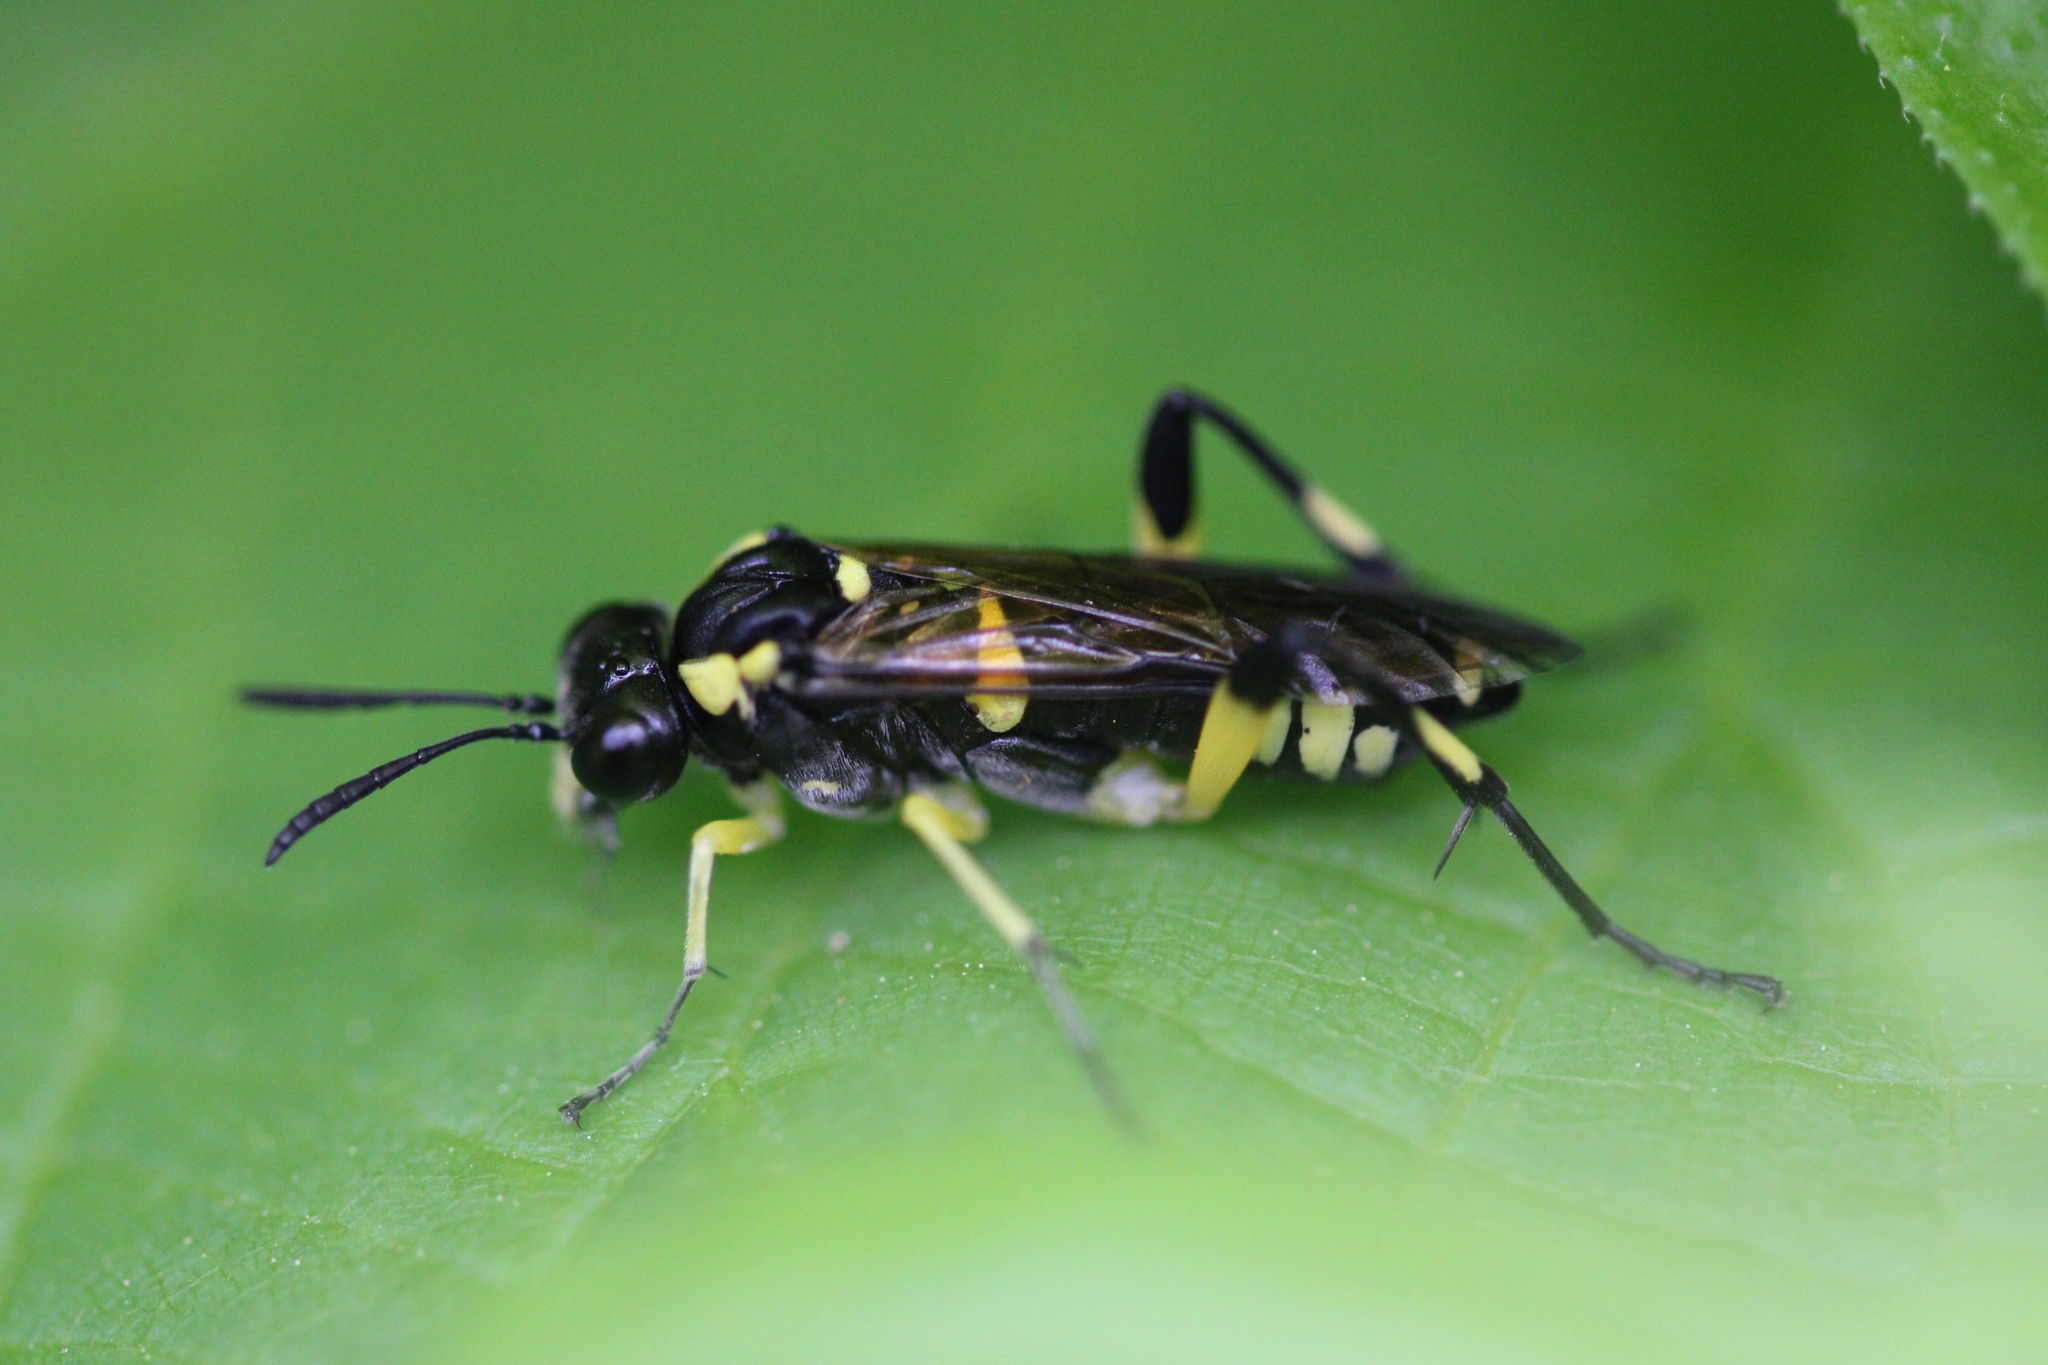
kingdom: Animalia
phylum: Arthropoda
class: Insecta
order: Hymenoptera
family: Tenthredinidae
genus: Macrophya
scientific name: Macrophya montana
